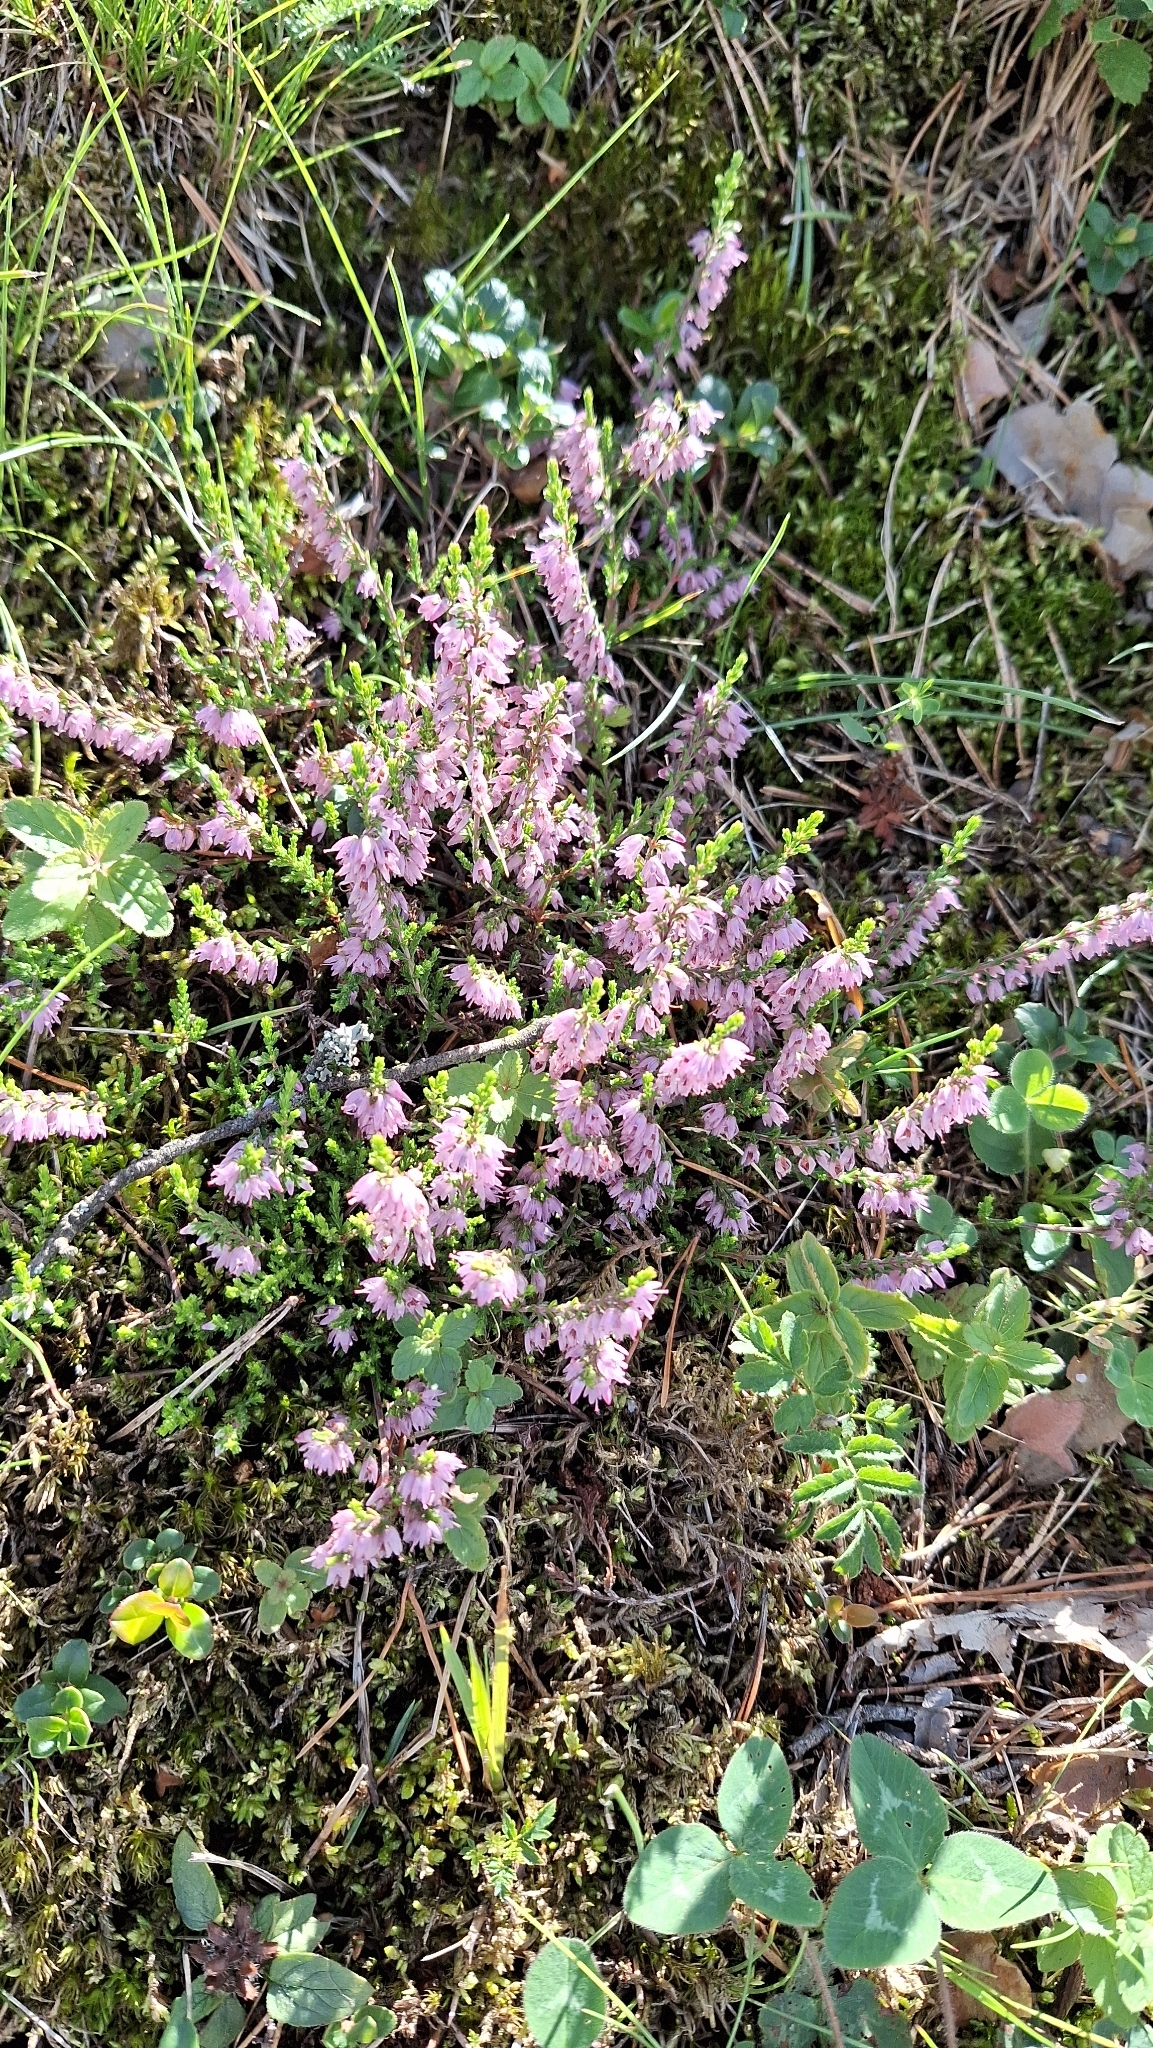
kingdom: Plantae
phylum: Tracheophyta
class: Magnoliopsida
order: Ericales
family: Ericaceae
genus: Calluna
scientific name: Calluna vulgaris
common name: Heather
